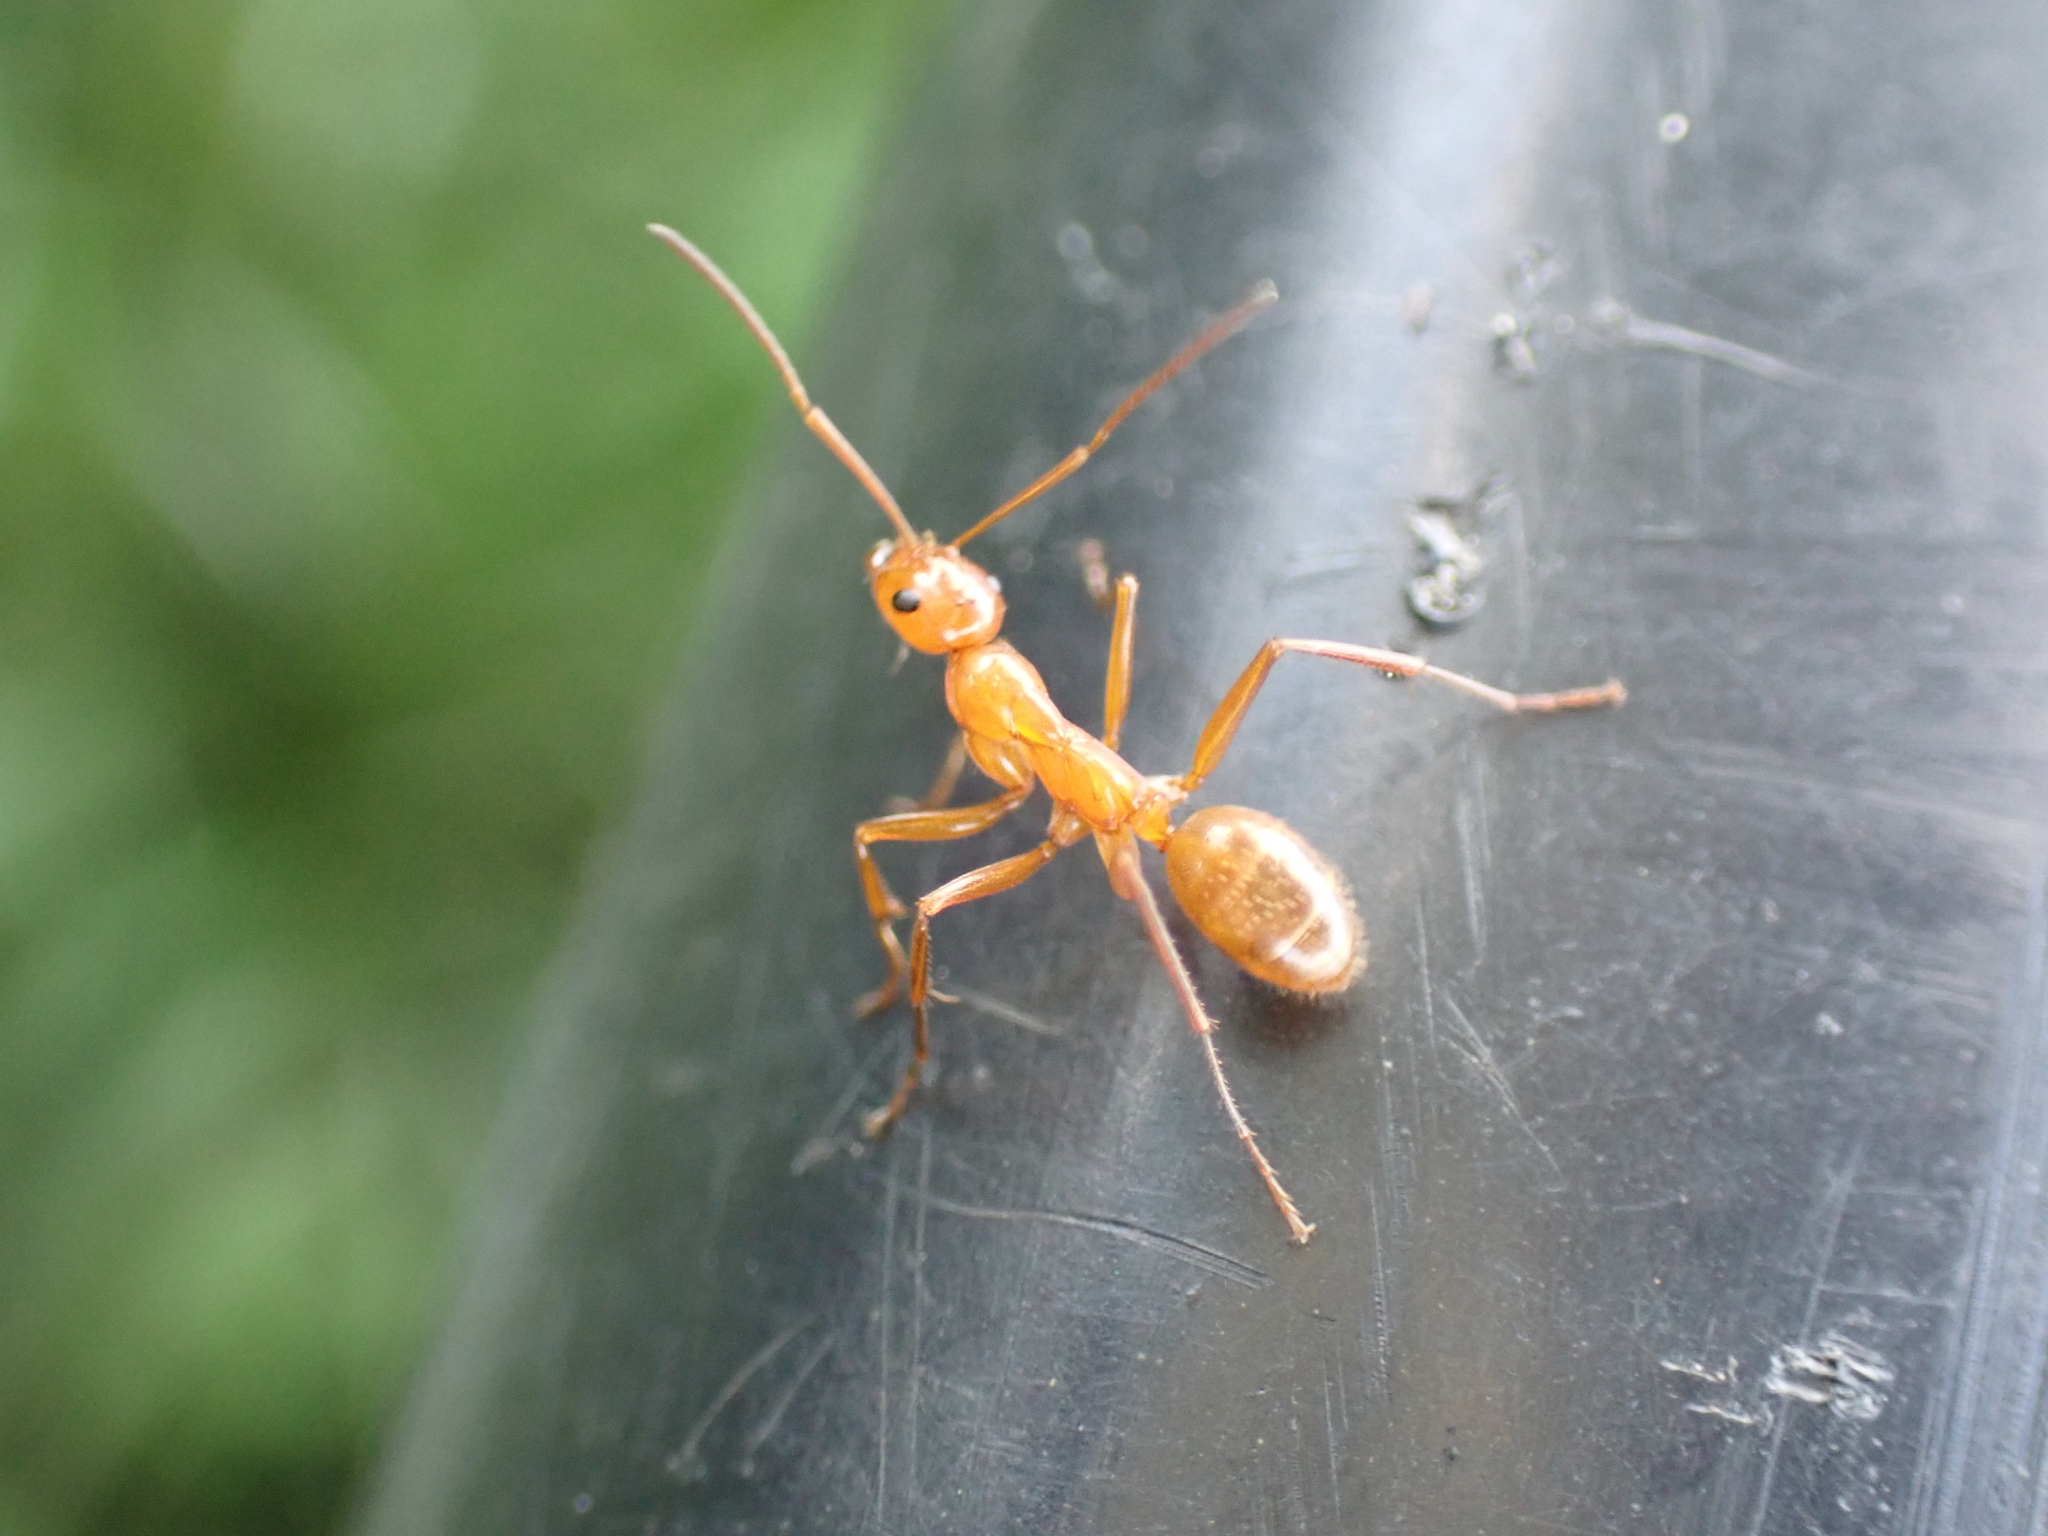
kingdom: Animalia
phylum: Arthropoda
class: Insecta
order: Hymenoptera
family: Formicidae
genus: Formica
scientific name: Formica pallidefulva
